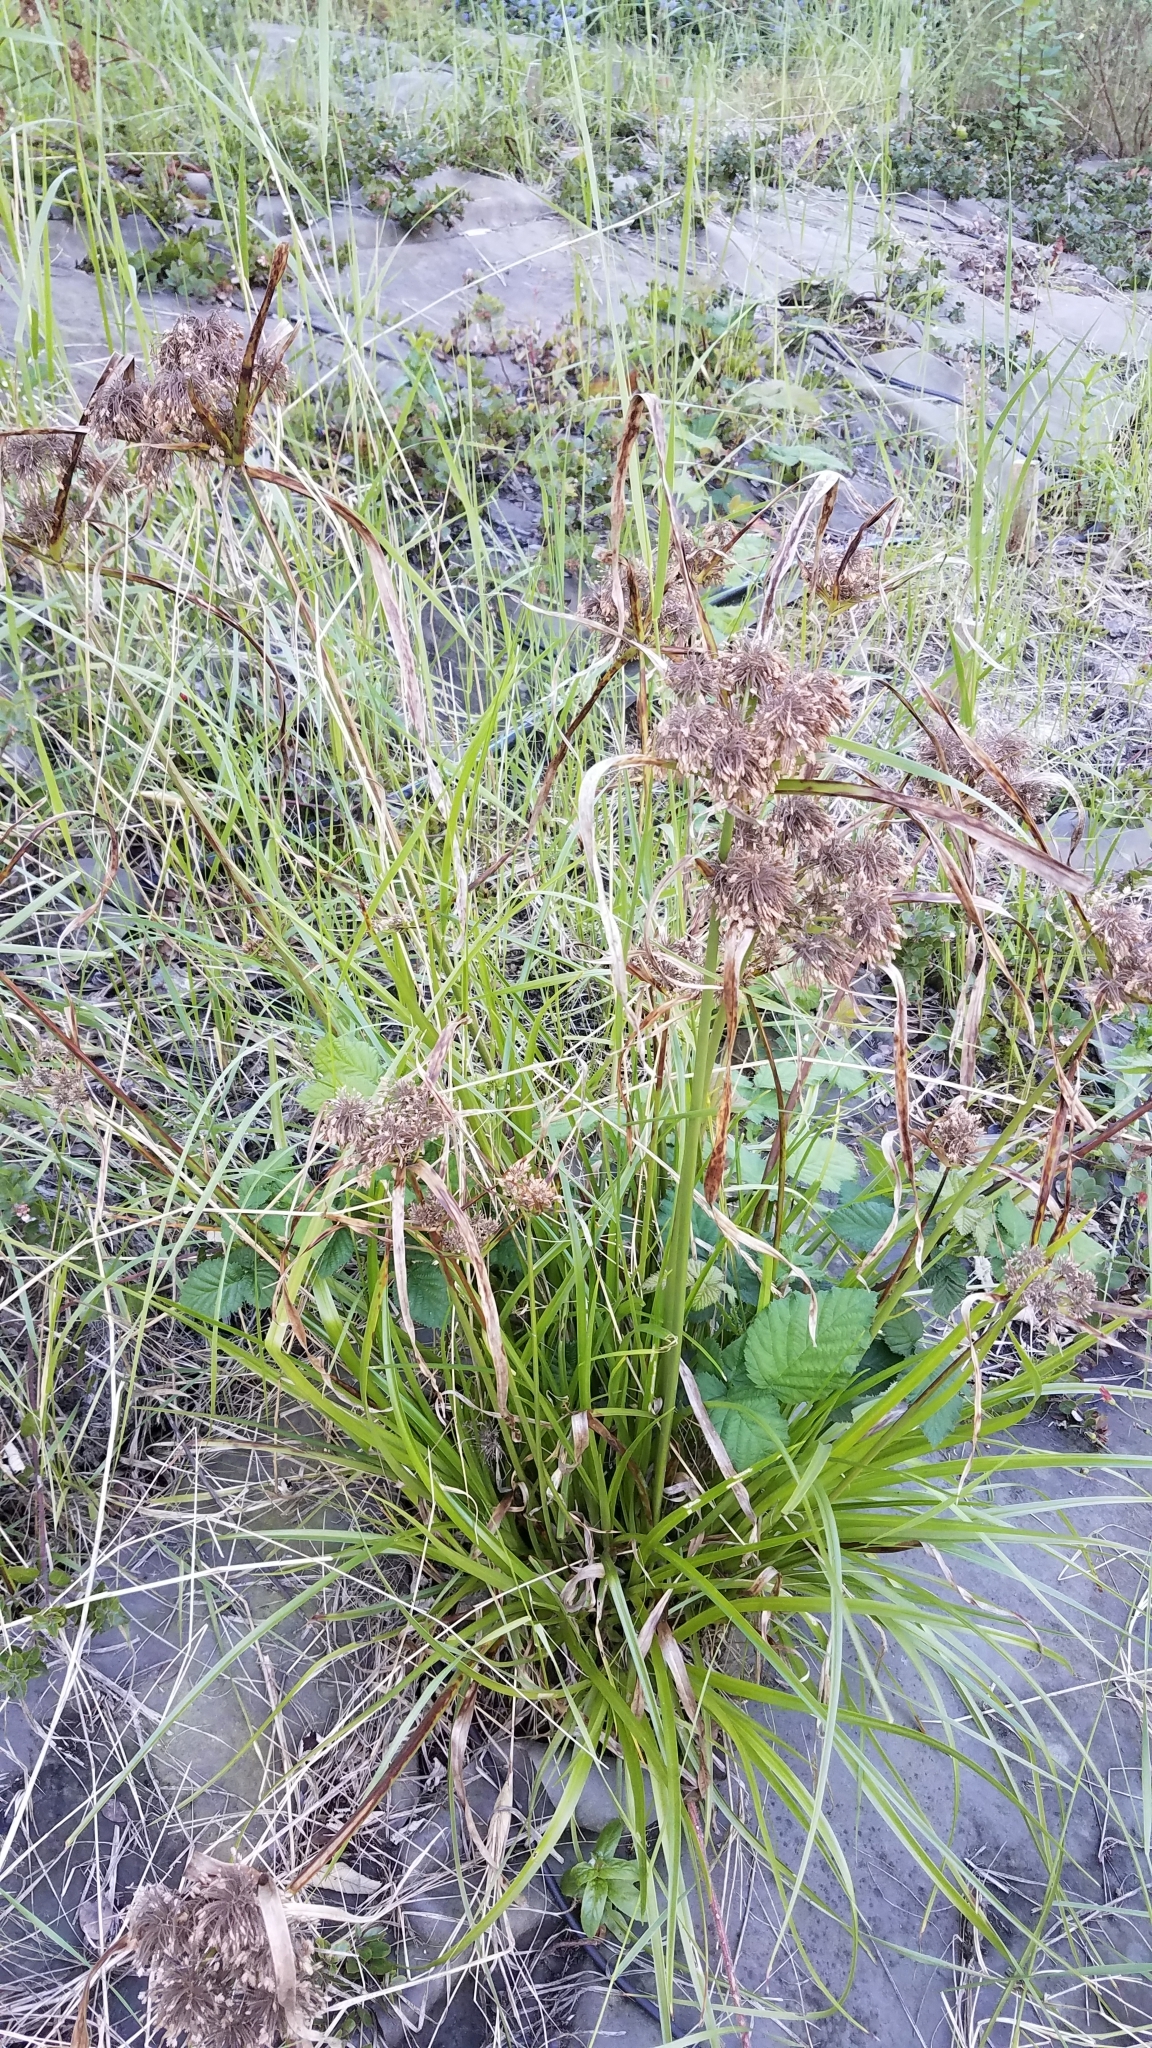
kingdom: Plantae
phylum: Tracheophyta
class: Liliopsida
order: Poales
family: Cyperaceae
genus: Cyperus
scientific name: Cyperus eragrostis
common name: Tall flatsedge
